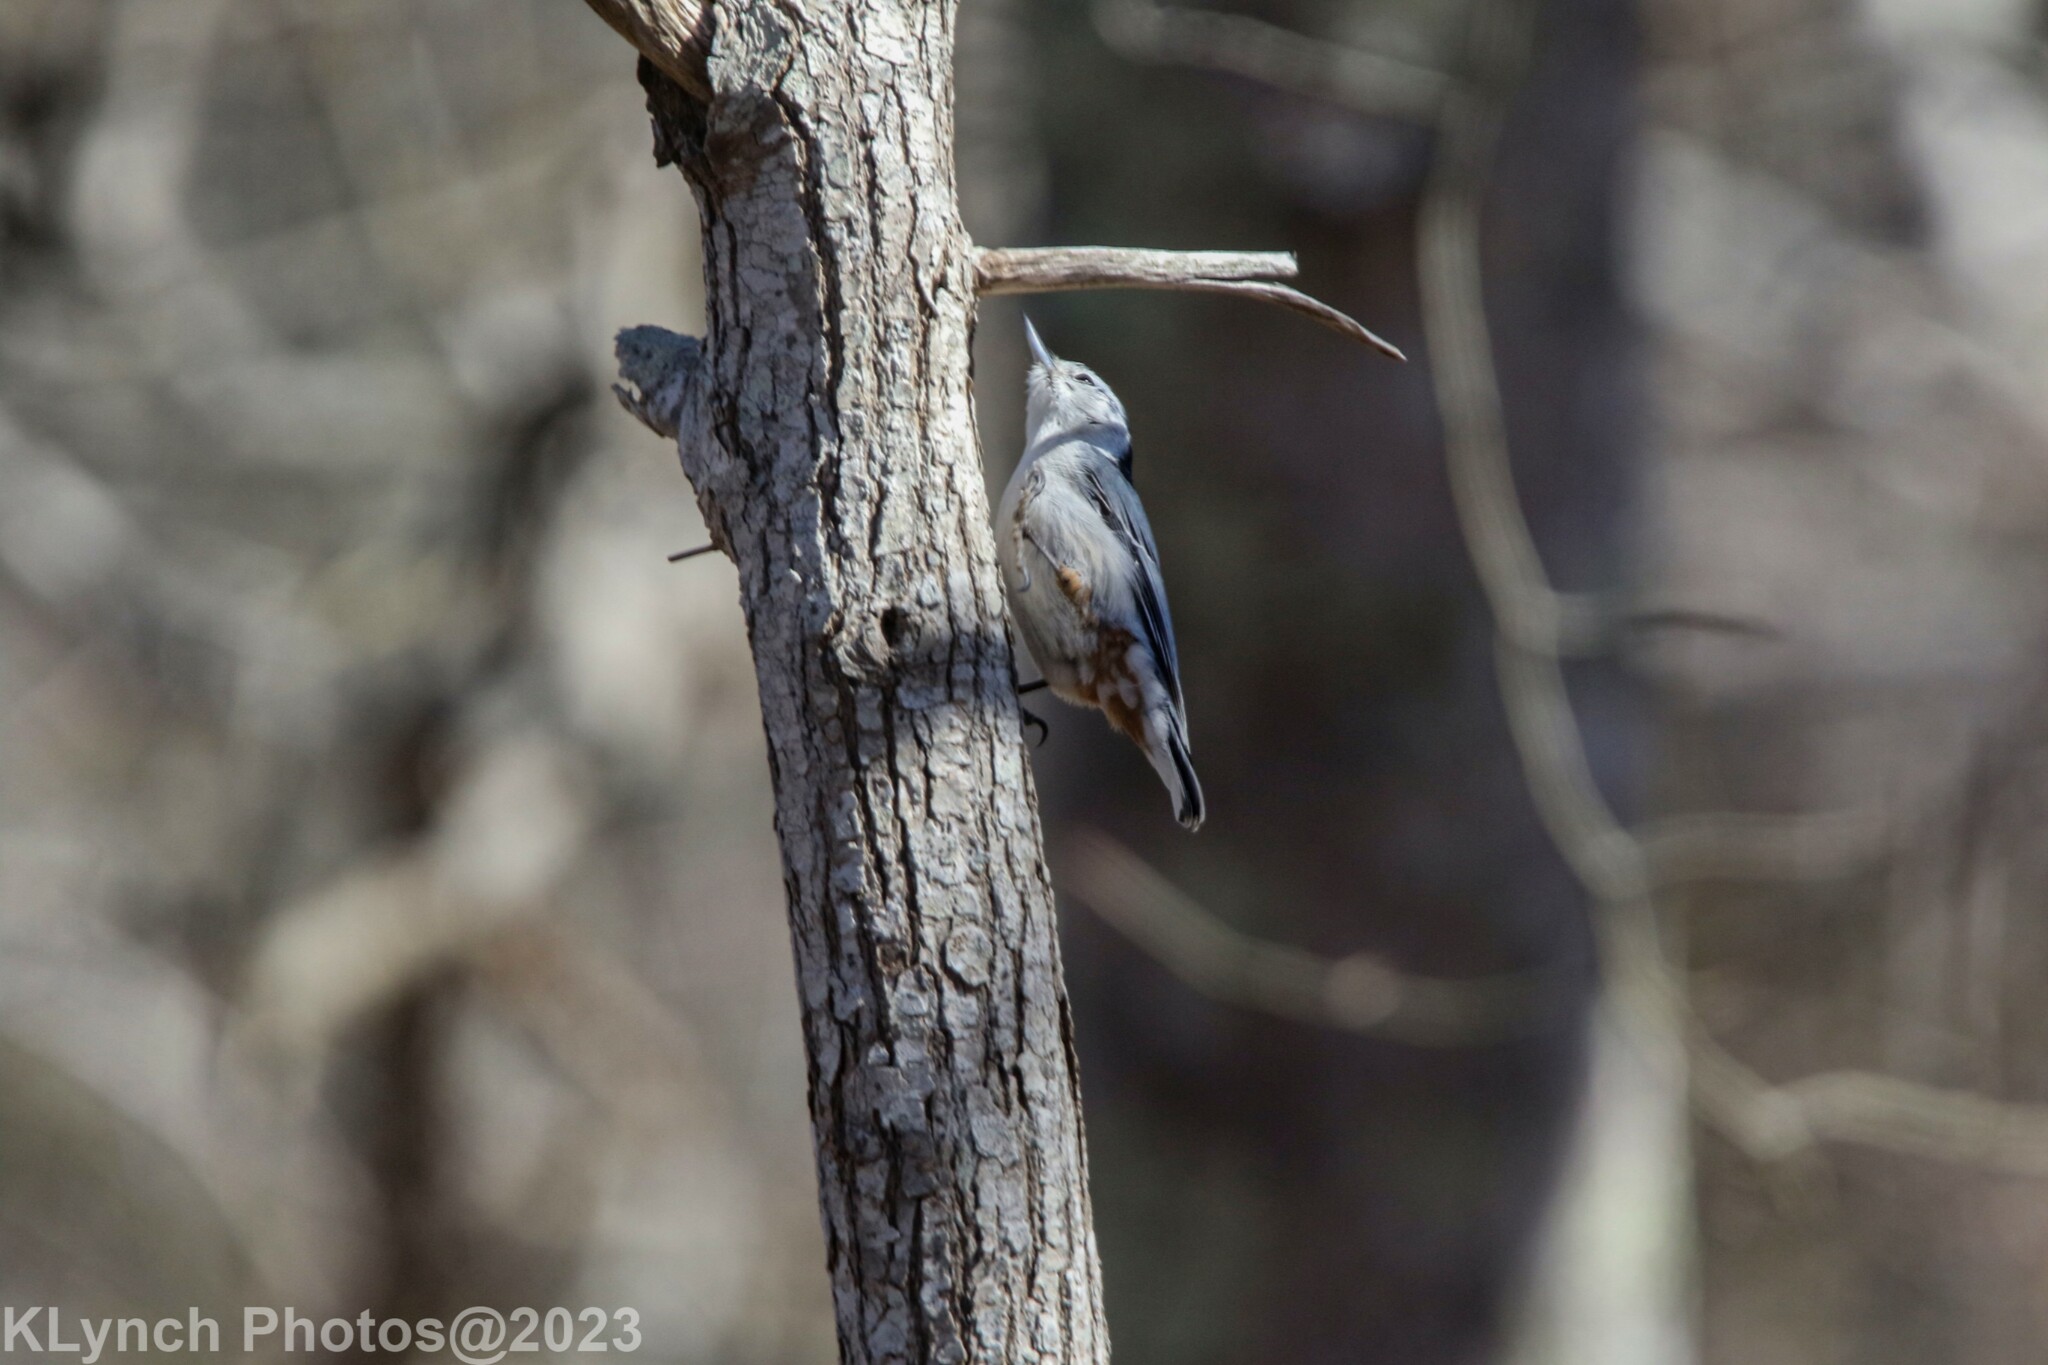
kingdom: Animalia
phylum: Chordata
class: Aves
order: Passeriformes
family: Sittidae
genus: Sitta
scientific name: Sitta carolinensis
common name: White-breasted nuthatch
